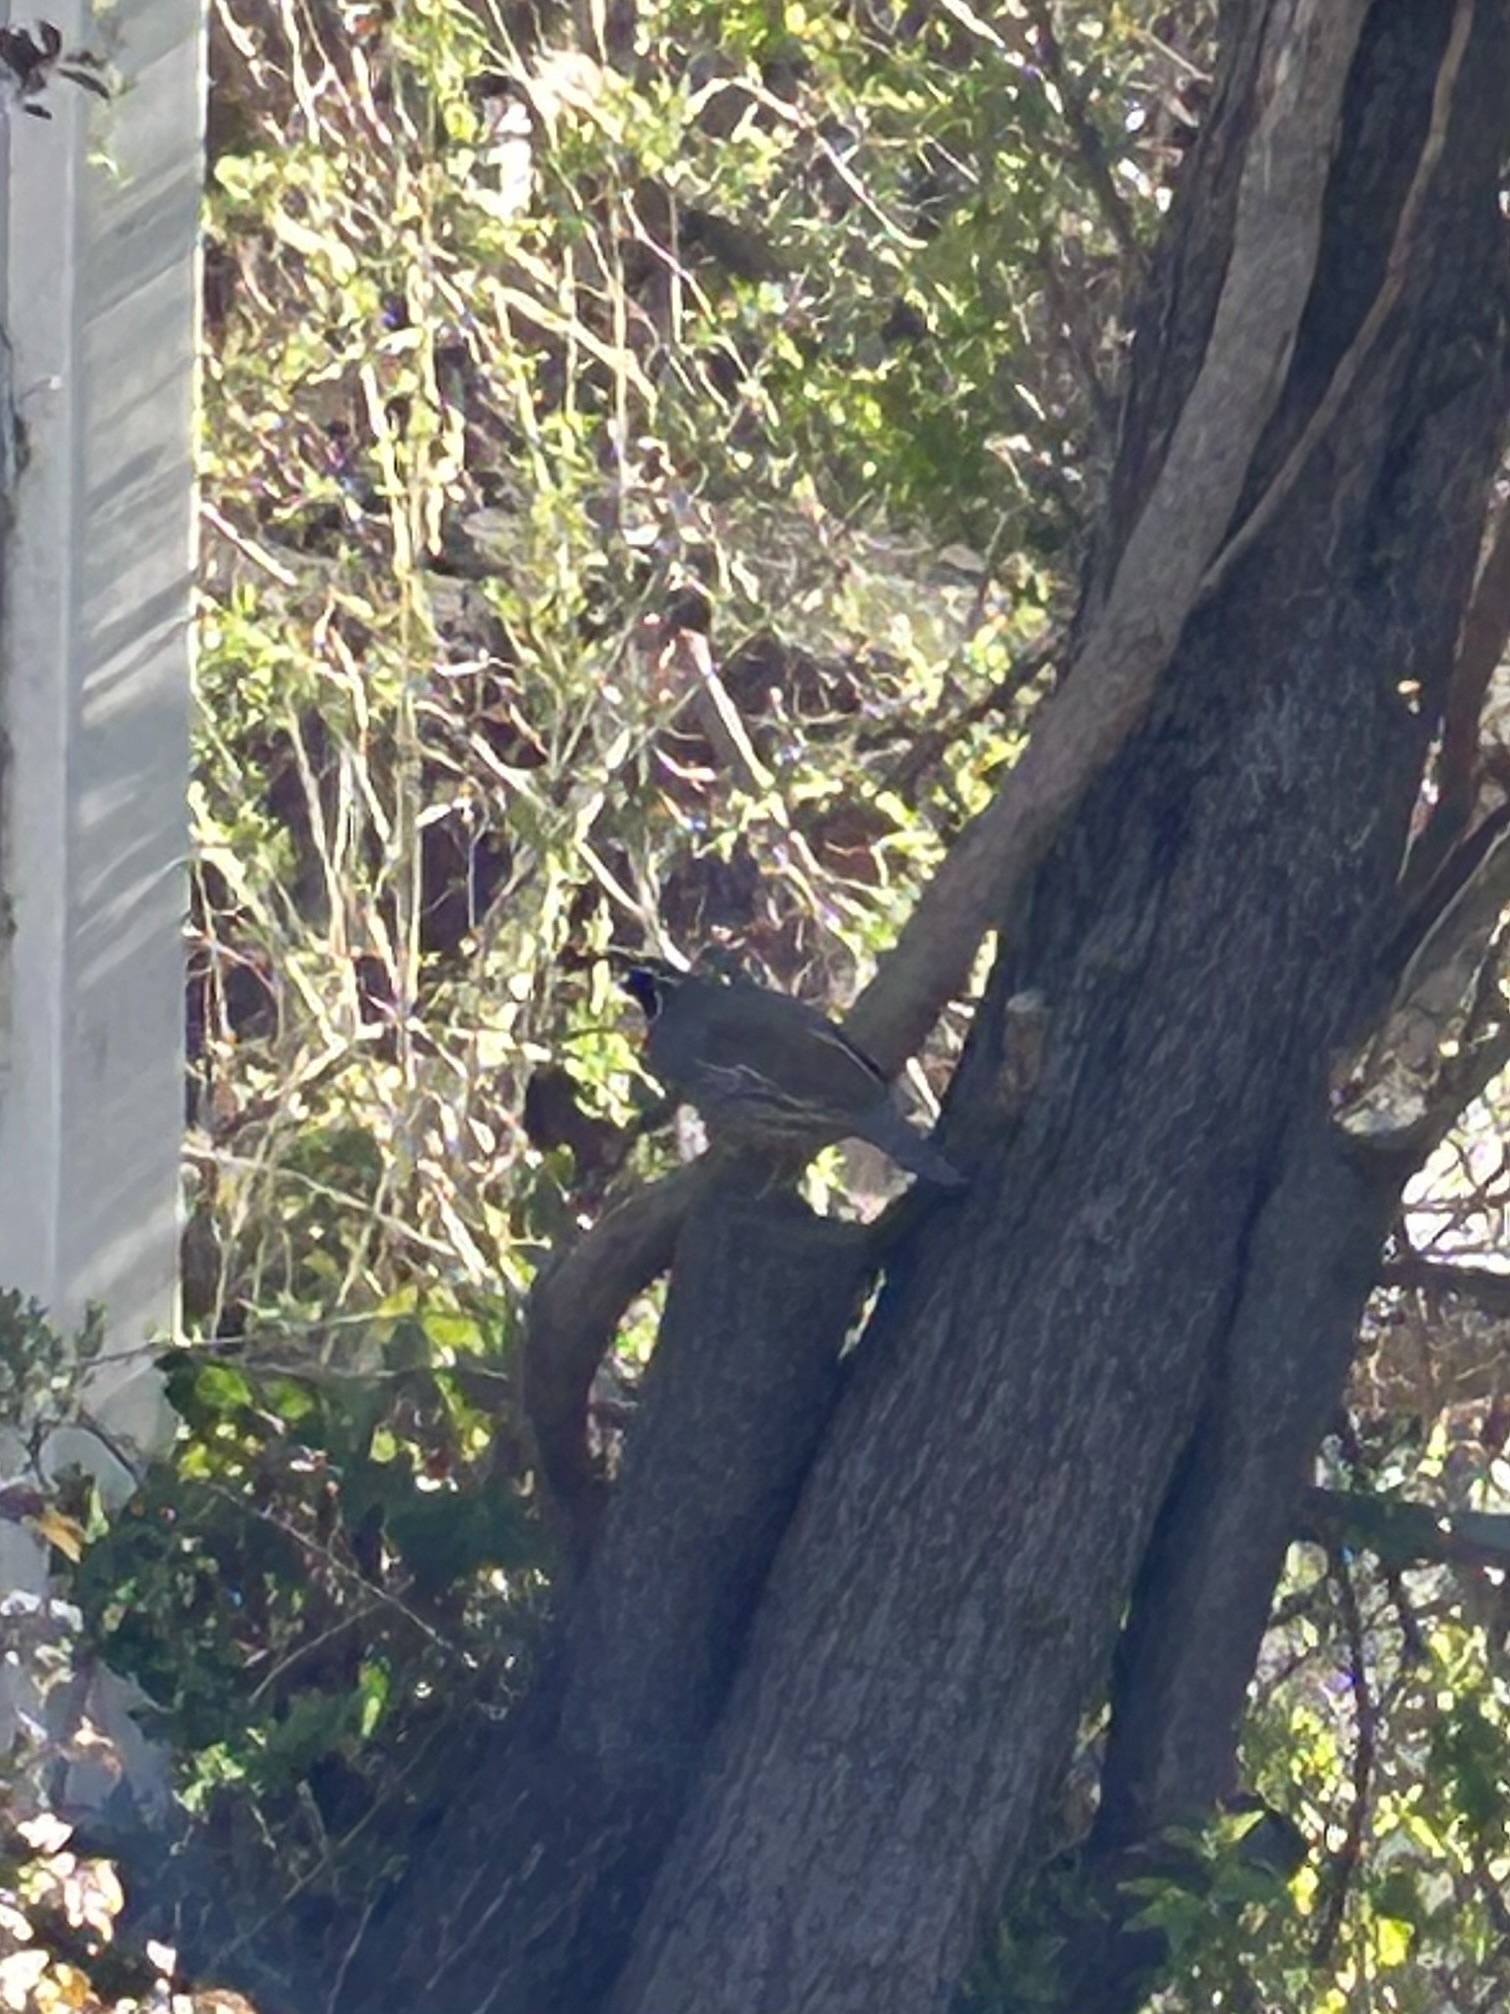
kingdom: Animalia
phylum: Chordata
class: Aves
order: Galliformes
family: Odontophoridae
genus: Callipepla
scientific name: Callipepla californica
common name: California quail
